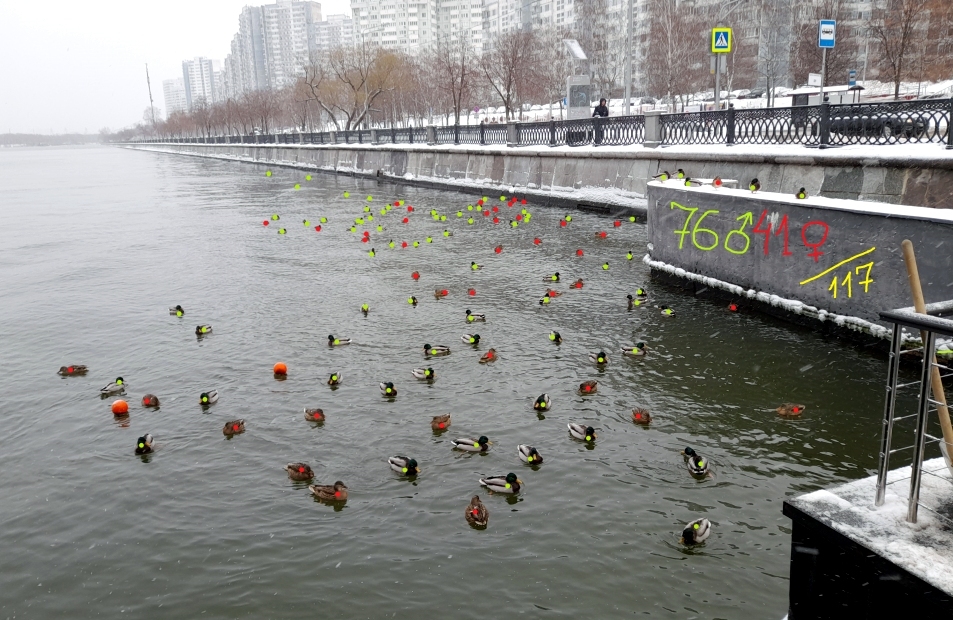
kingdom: Animalia
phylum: Chordata
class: Aves
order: Anseriformes
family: Anatidae
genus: Anas
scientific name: Anas platyrhynchos
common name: Mallard
